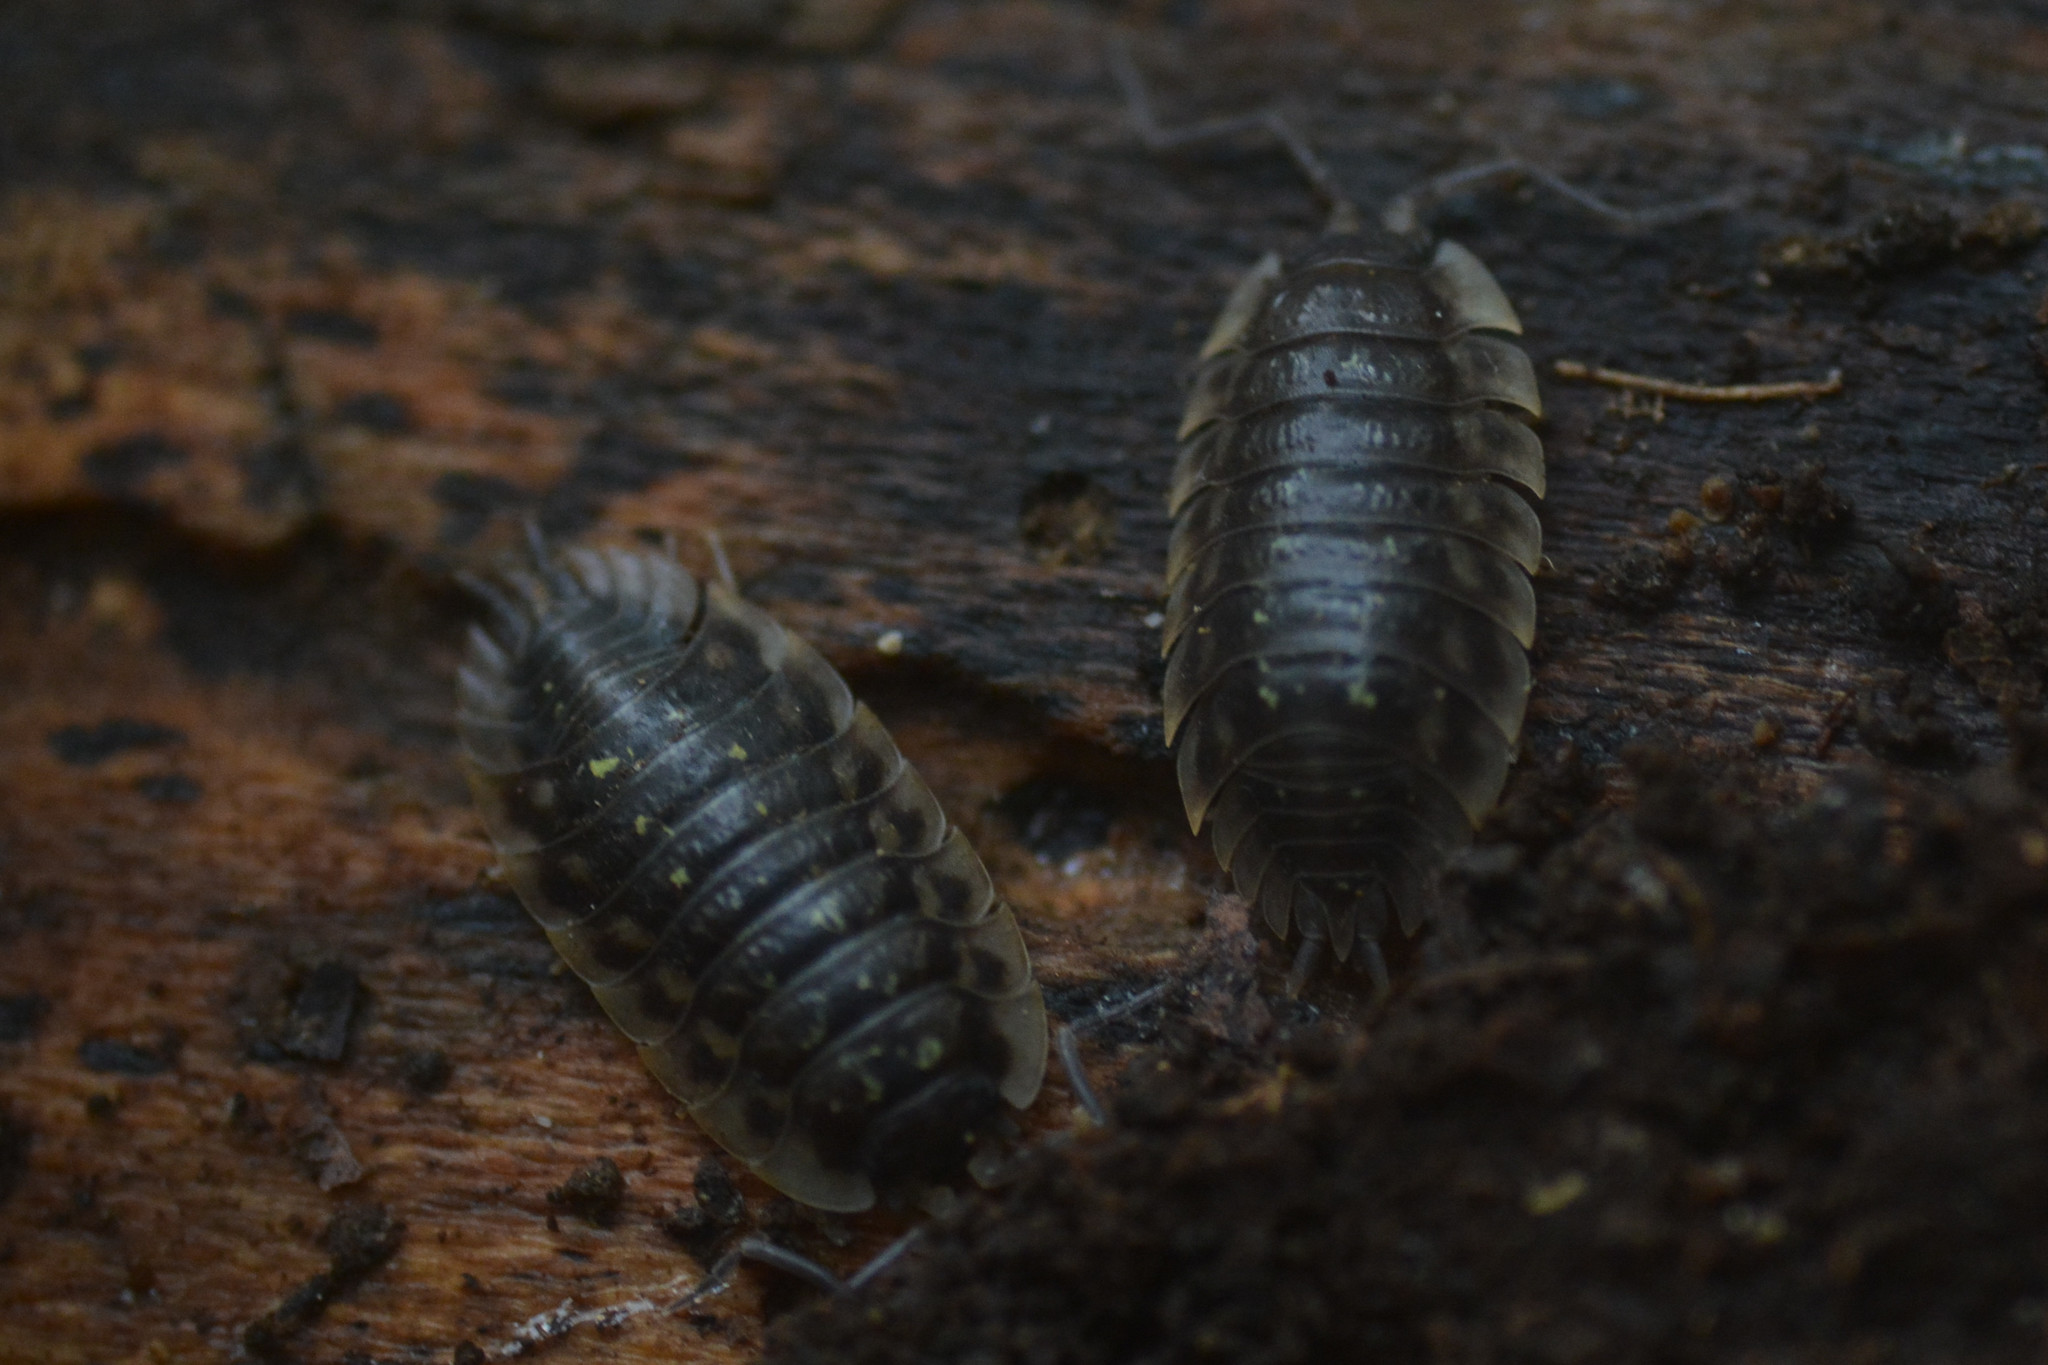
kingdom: Animalia
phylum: Arthropoda
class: Malacostraca
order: Isopoda
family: Oniscidae
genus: Oniscus
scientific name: Oniscus asellus
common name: Common shiny woodlouse
